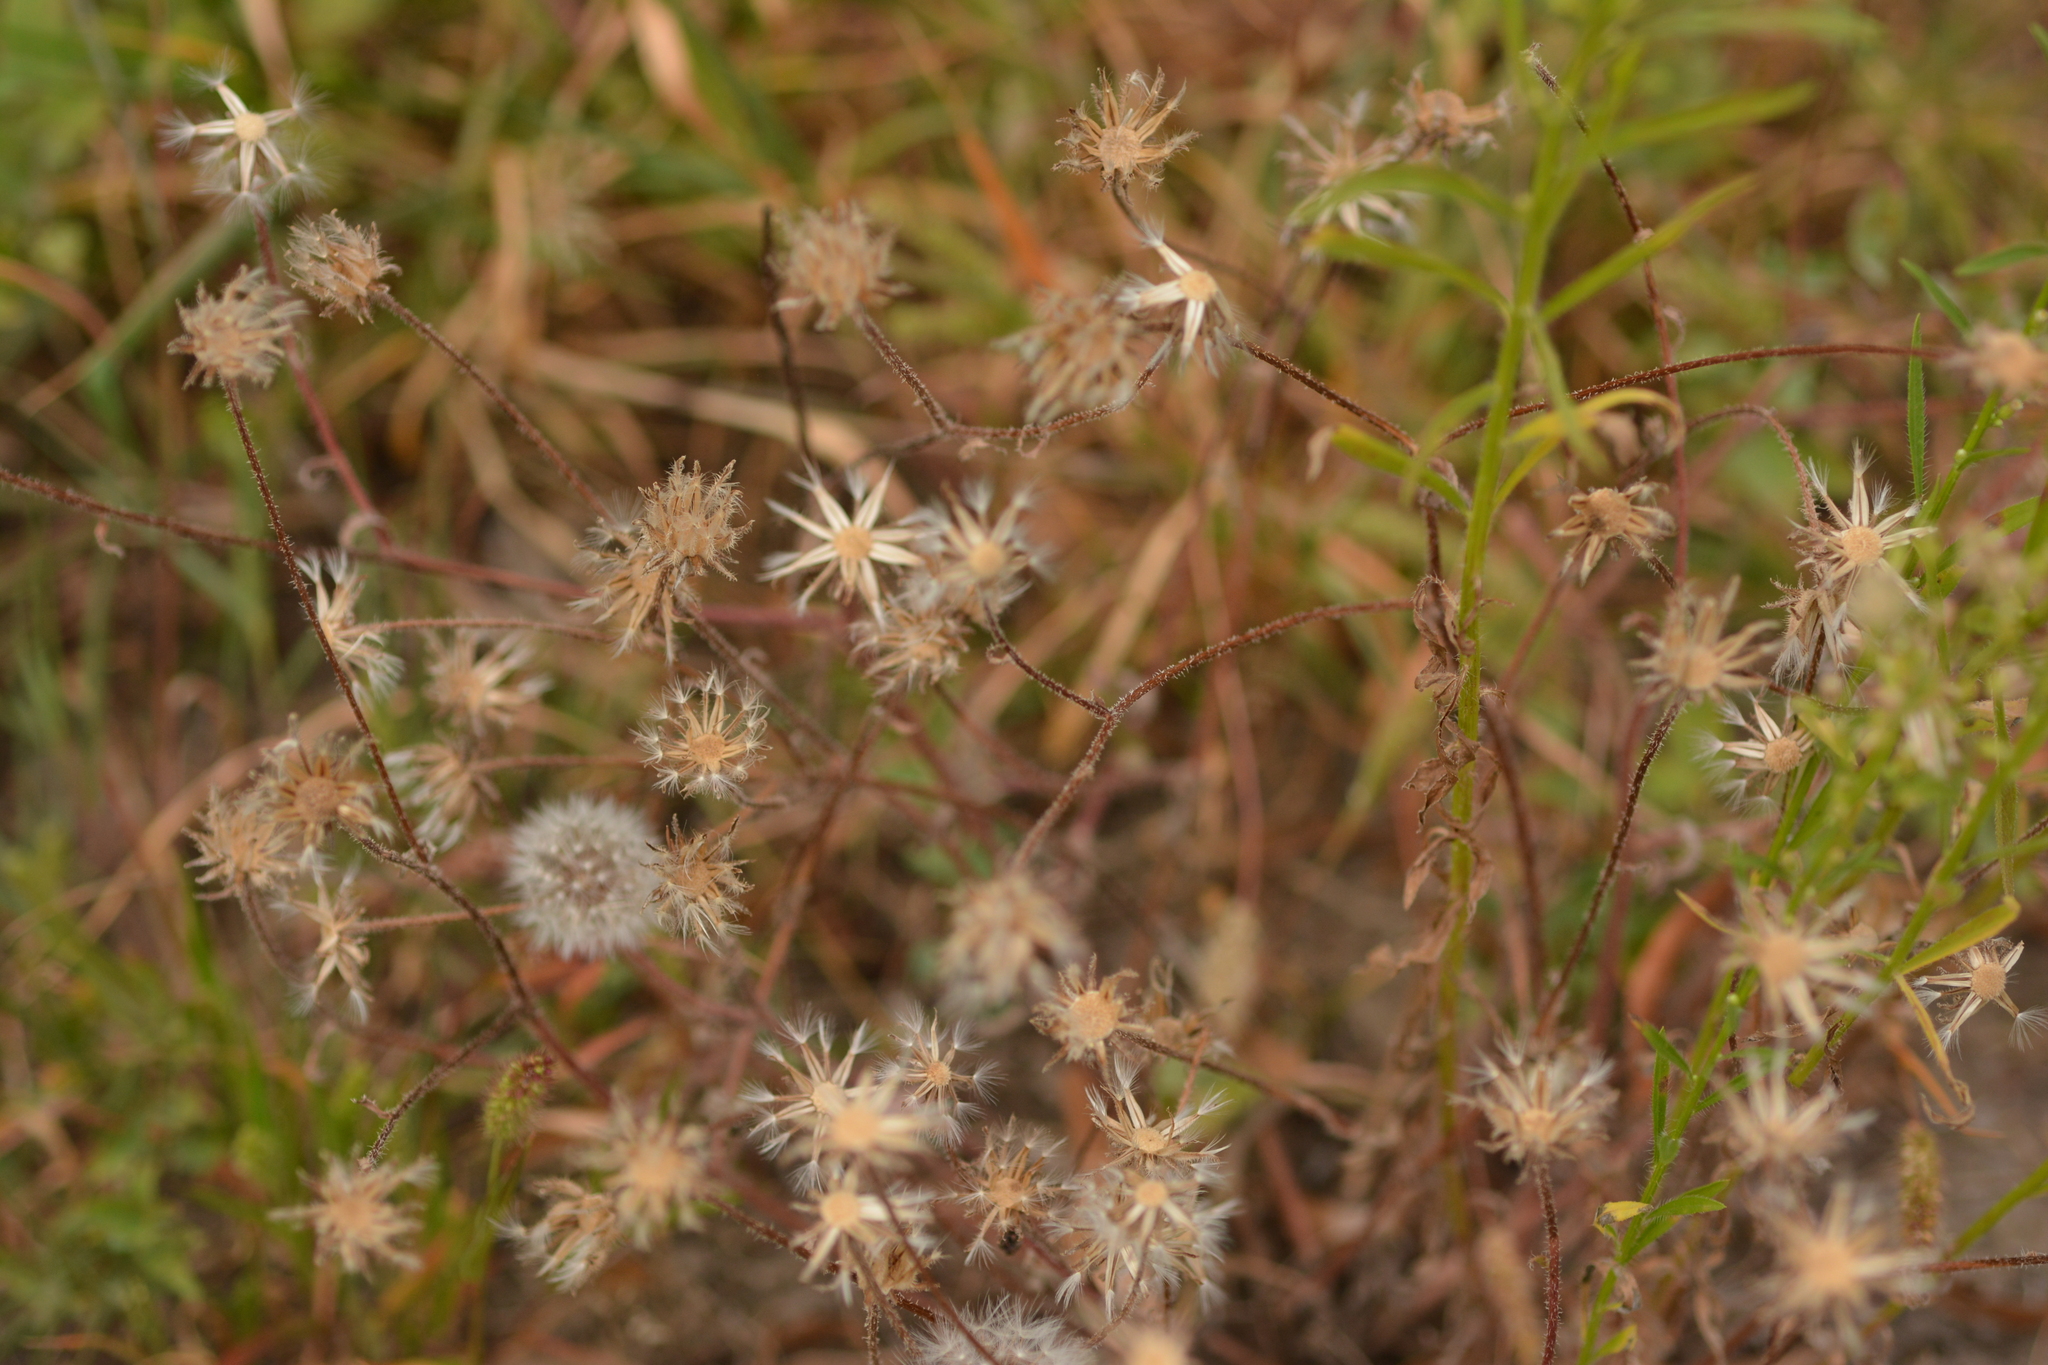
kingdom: Plantae
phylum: Tracheophyta
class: Magnoliopsida
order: Asterales
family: Asteraceae
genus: Crepis
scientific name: Crepis foetida
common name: Stinking hawk's-beard
